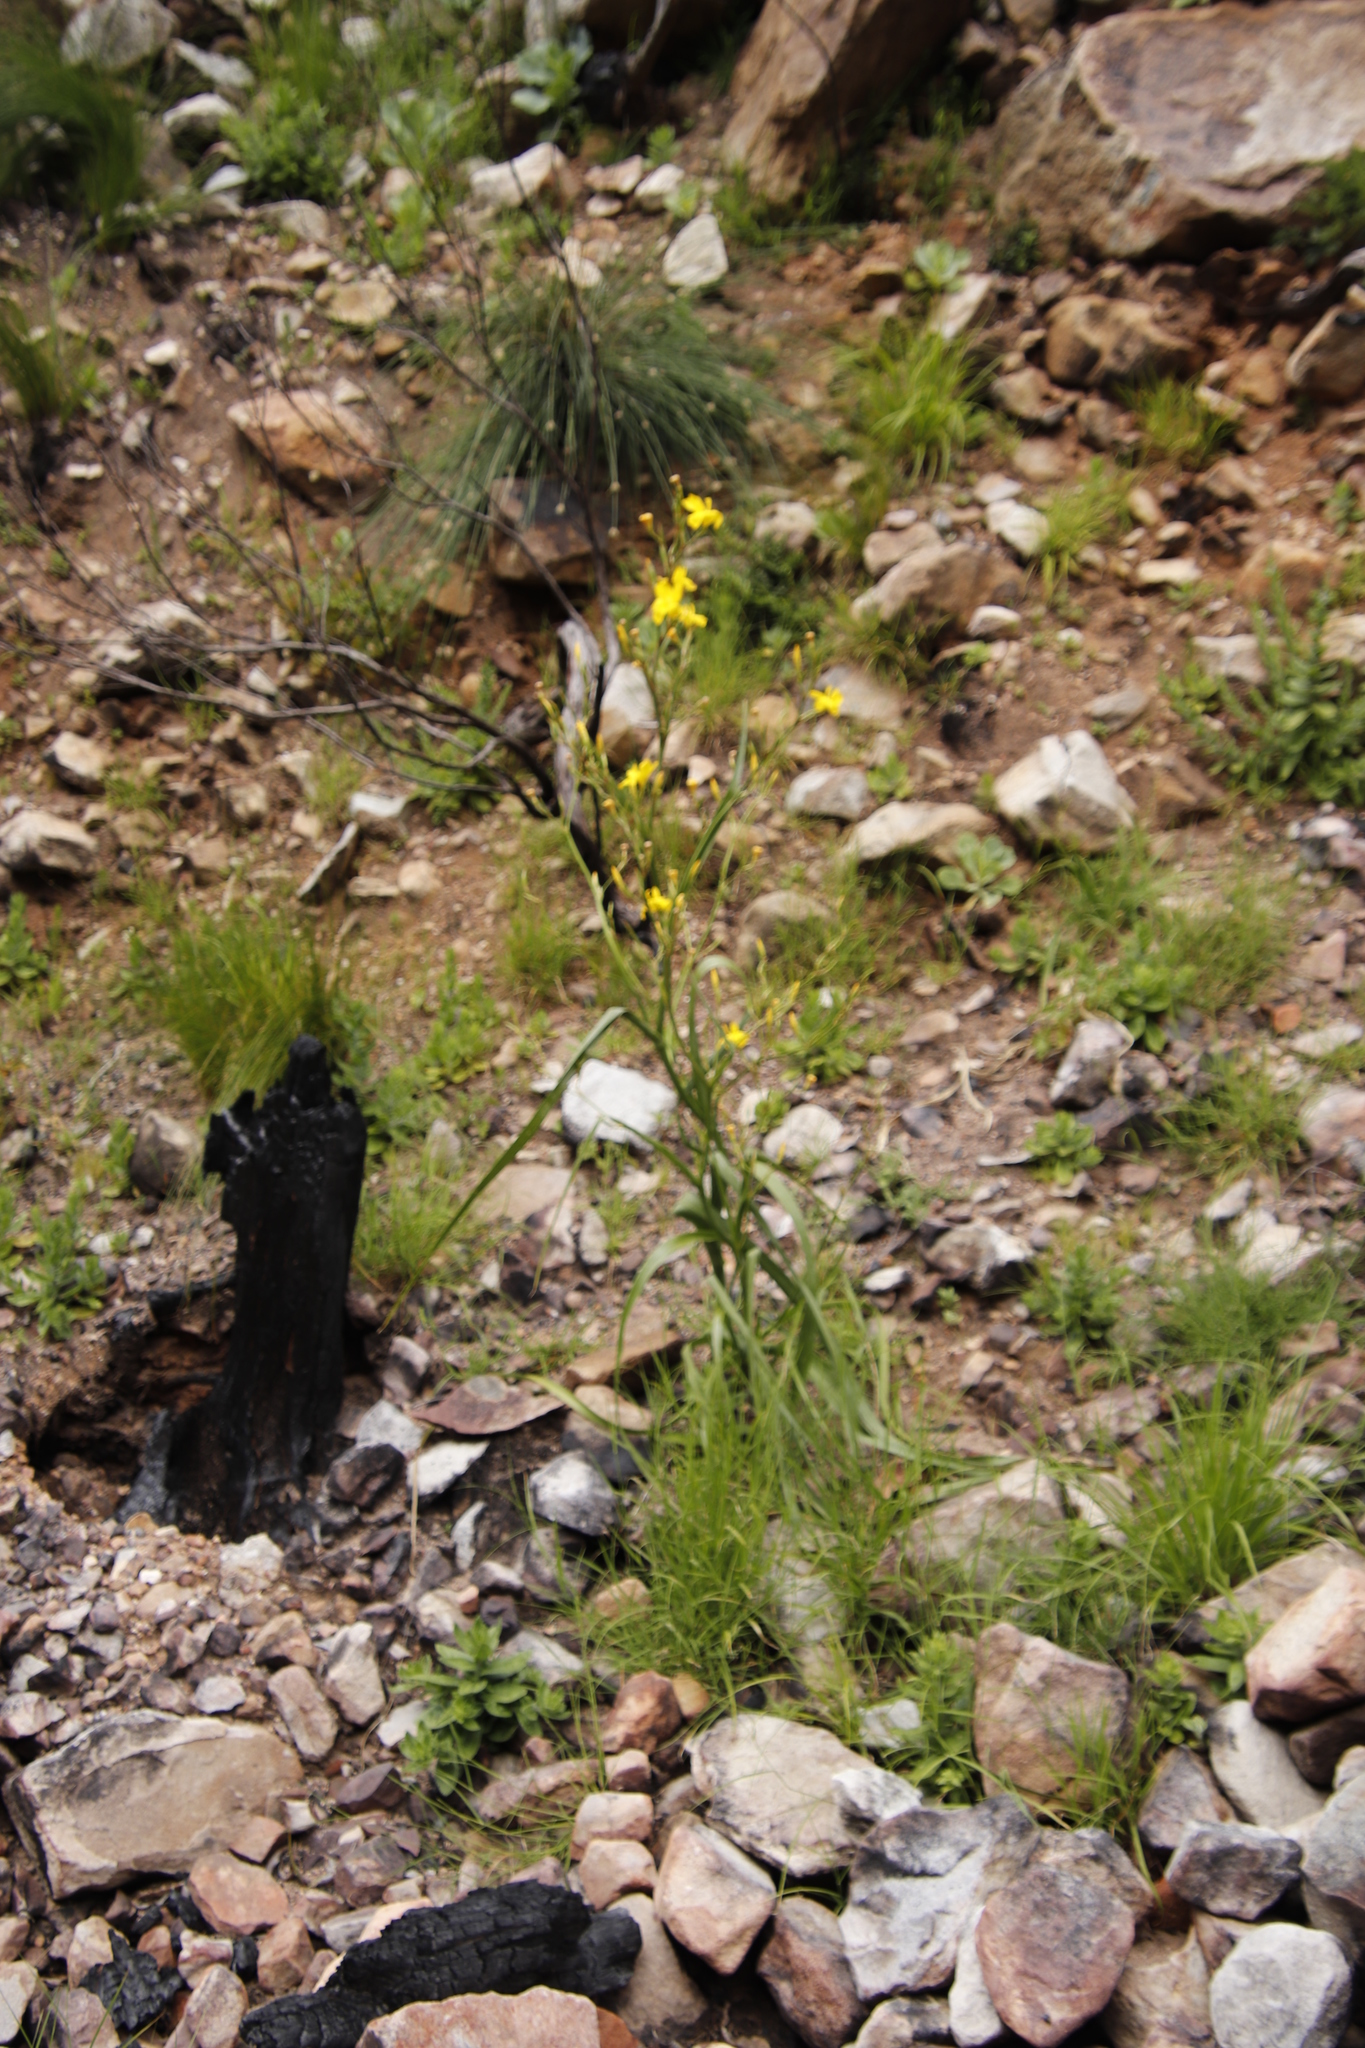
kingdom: Plantae
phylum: Tracheophyta
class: Liliopsida
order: Asparagales
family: Iridaceae
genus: Moraea
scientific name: Moraea ramosissima
